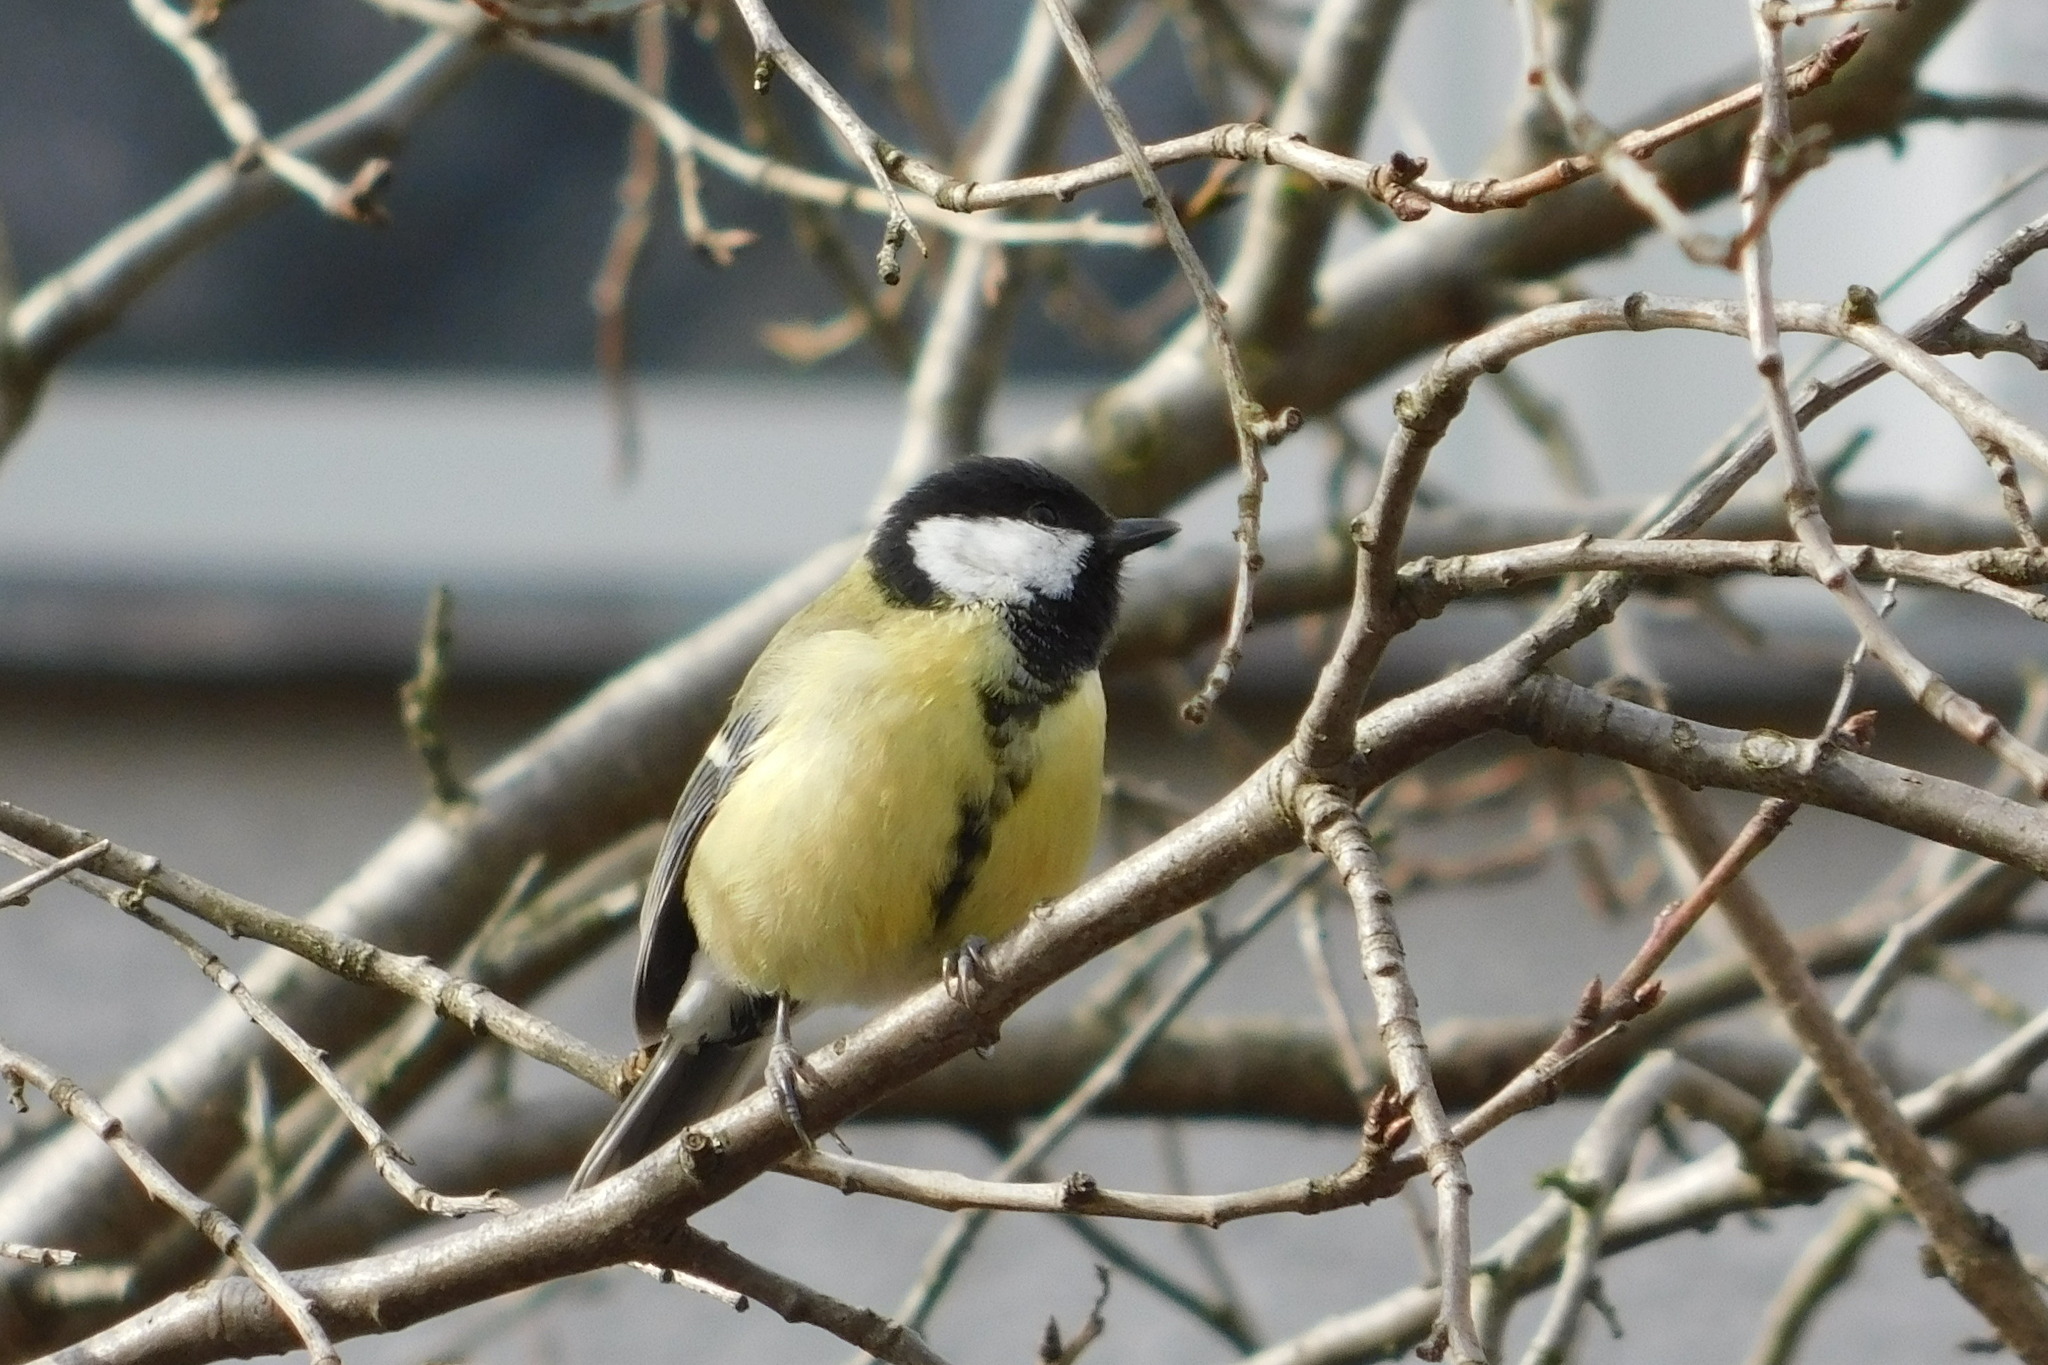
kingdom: Animalia
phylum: Chordata
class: Aves
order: Passeriformes
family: Paridae
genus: Parus
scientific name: Parus major
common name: Great tit
